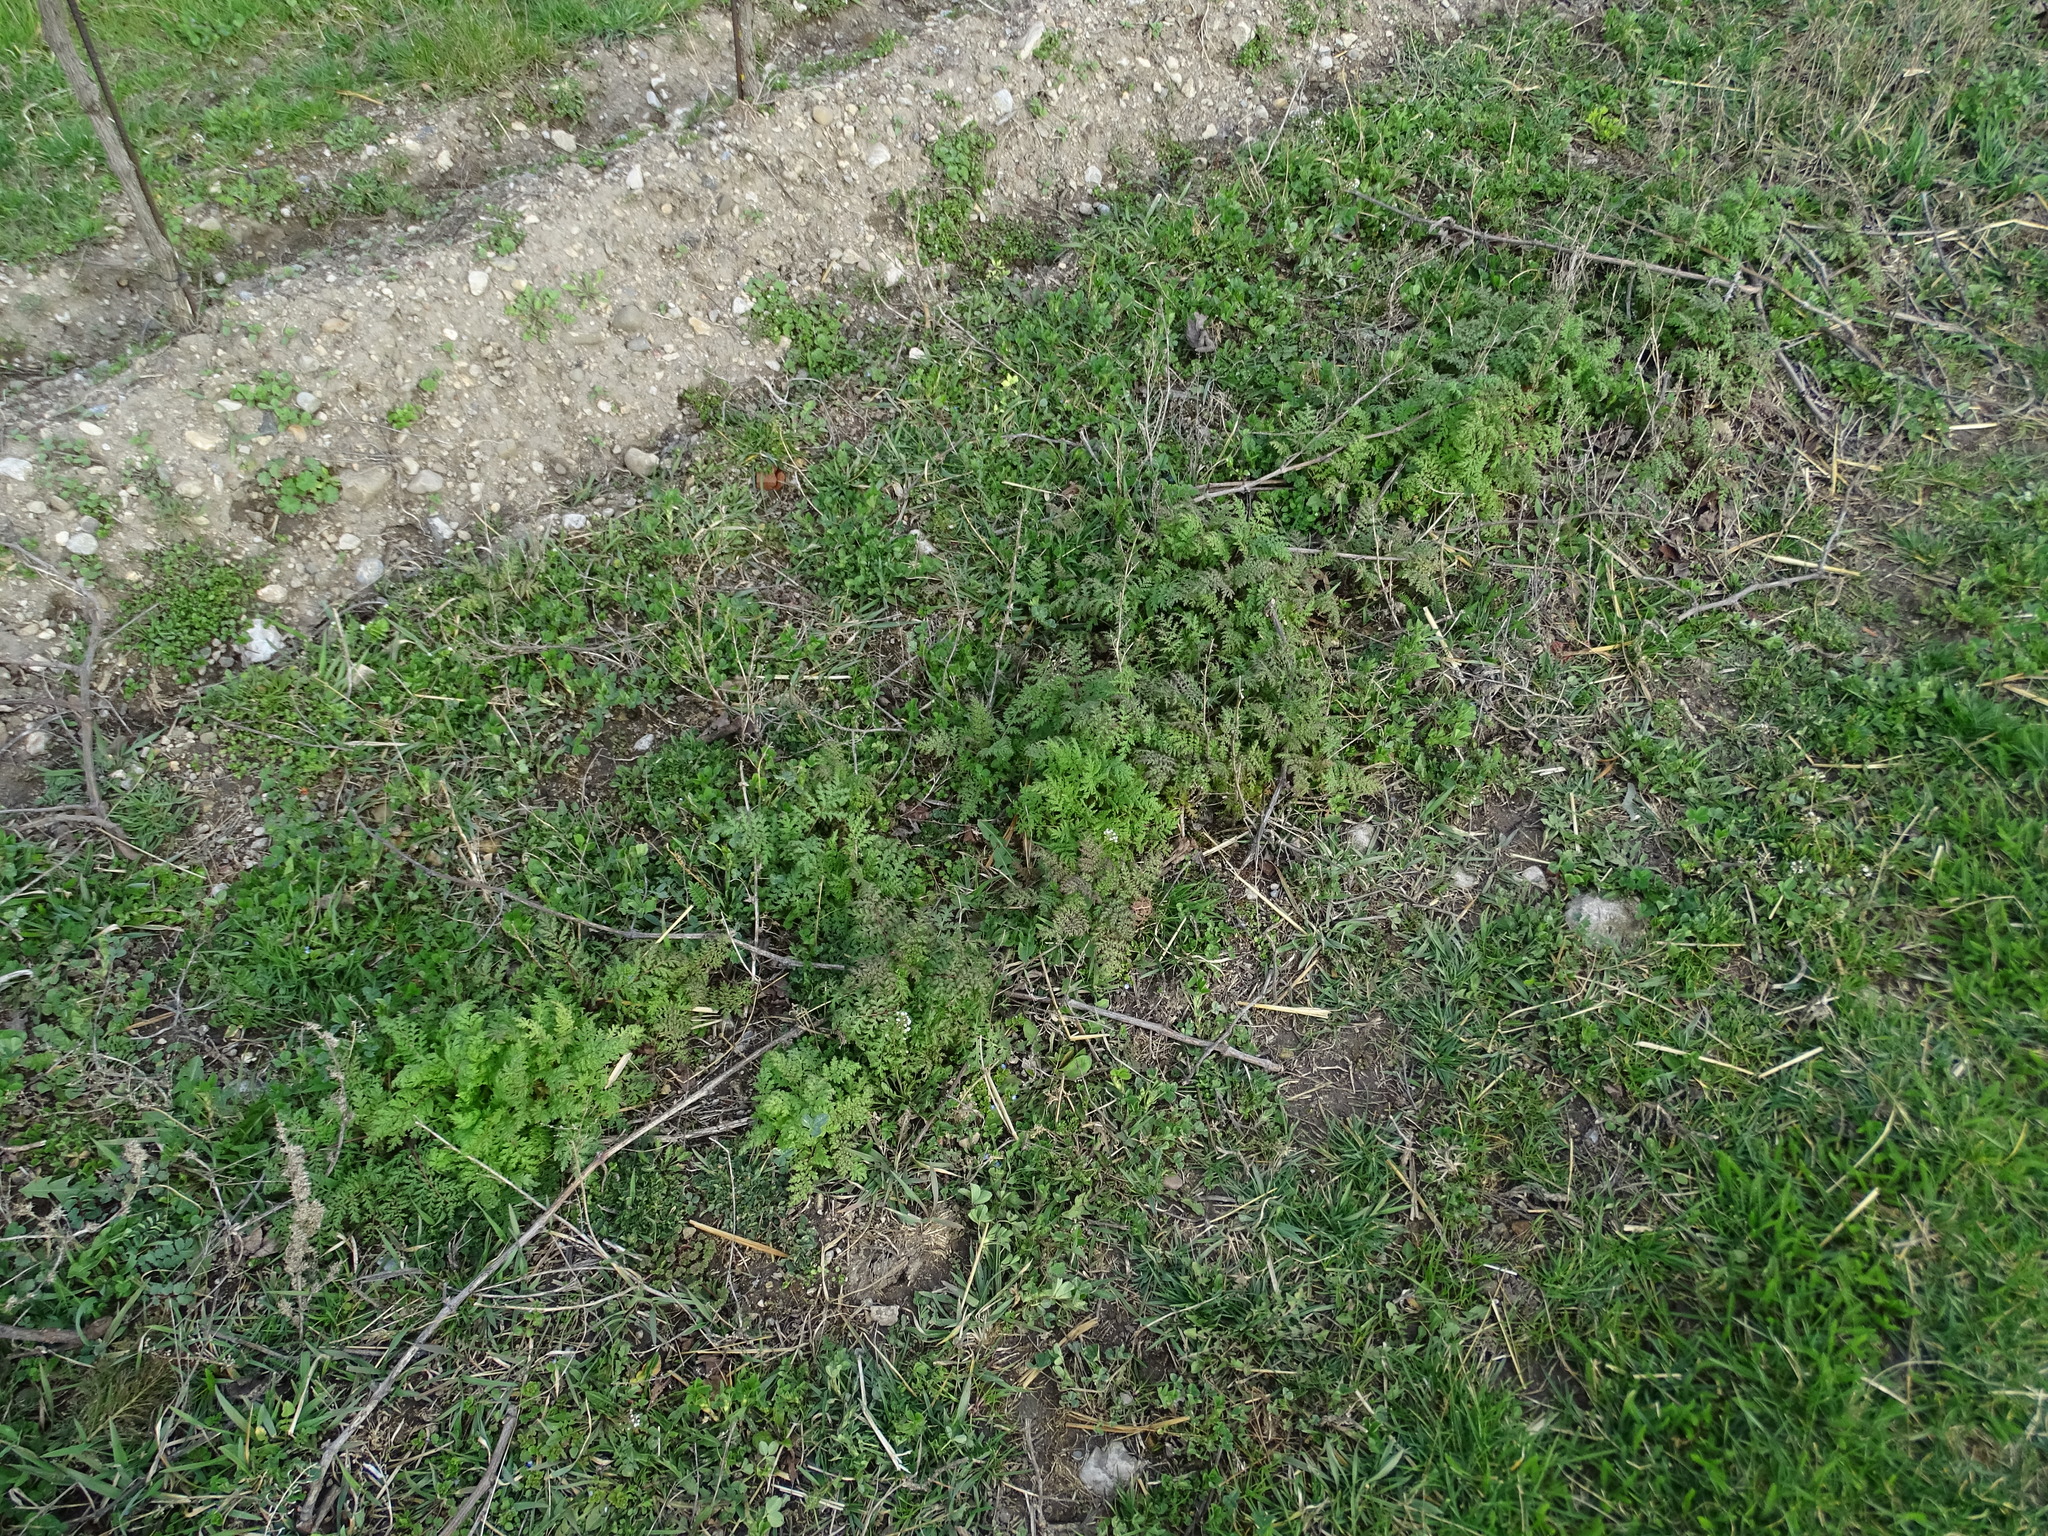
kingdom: Plantae
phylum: Tracheophyta
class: Magnoliopsida
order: Boraginales
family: Hydrophyllaceae
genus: Phacelia
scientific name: Phacelia tanacetifolia
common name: Phacelia
